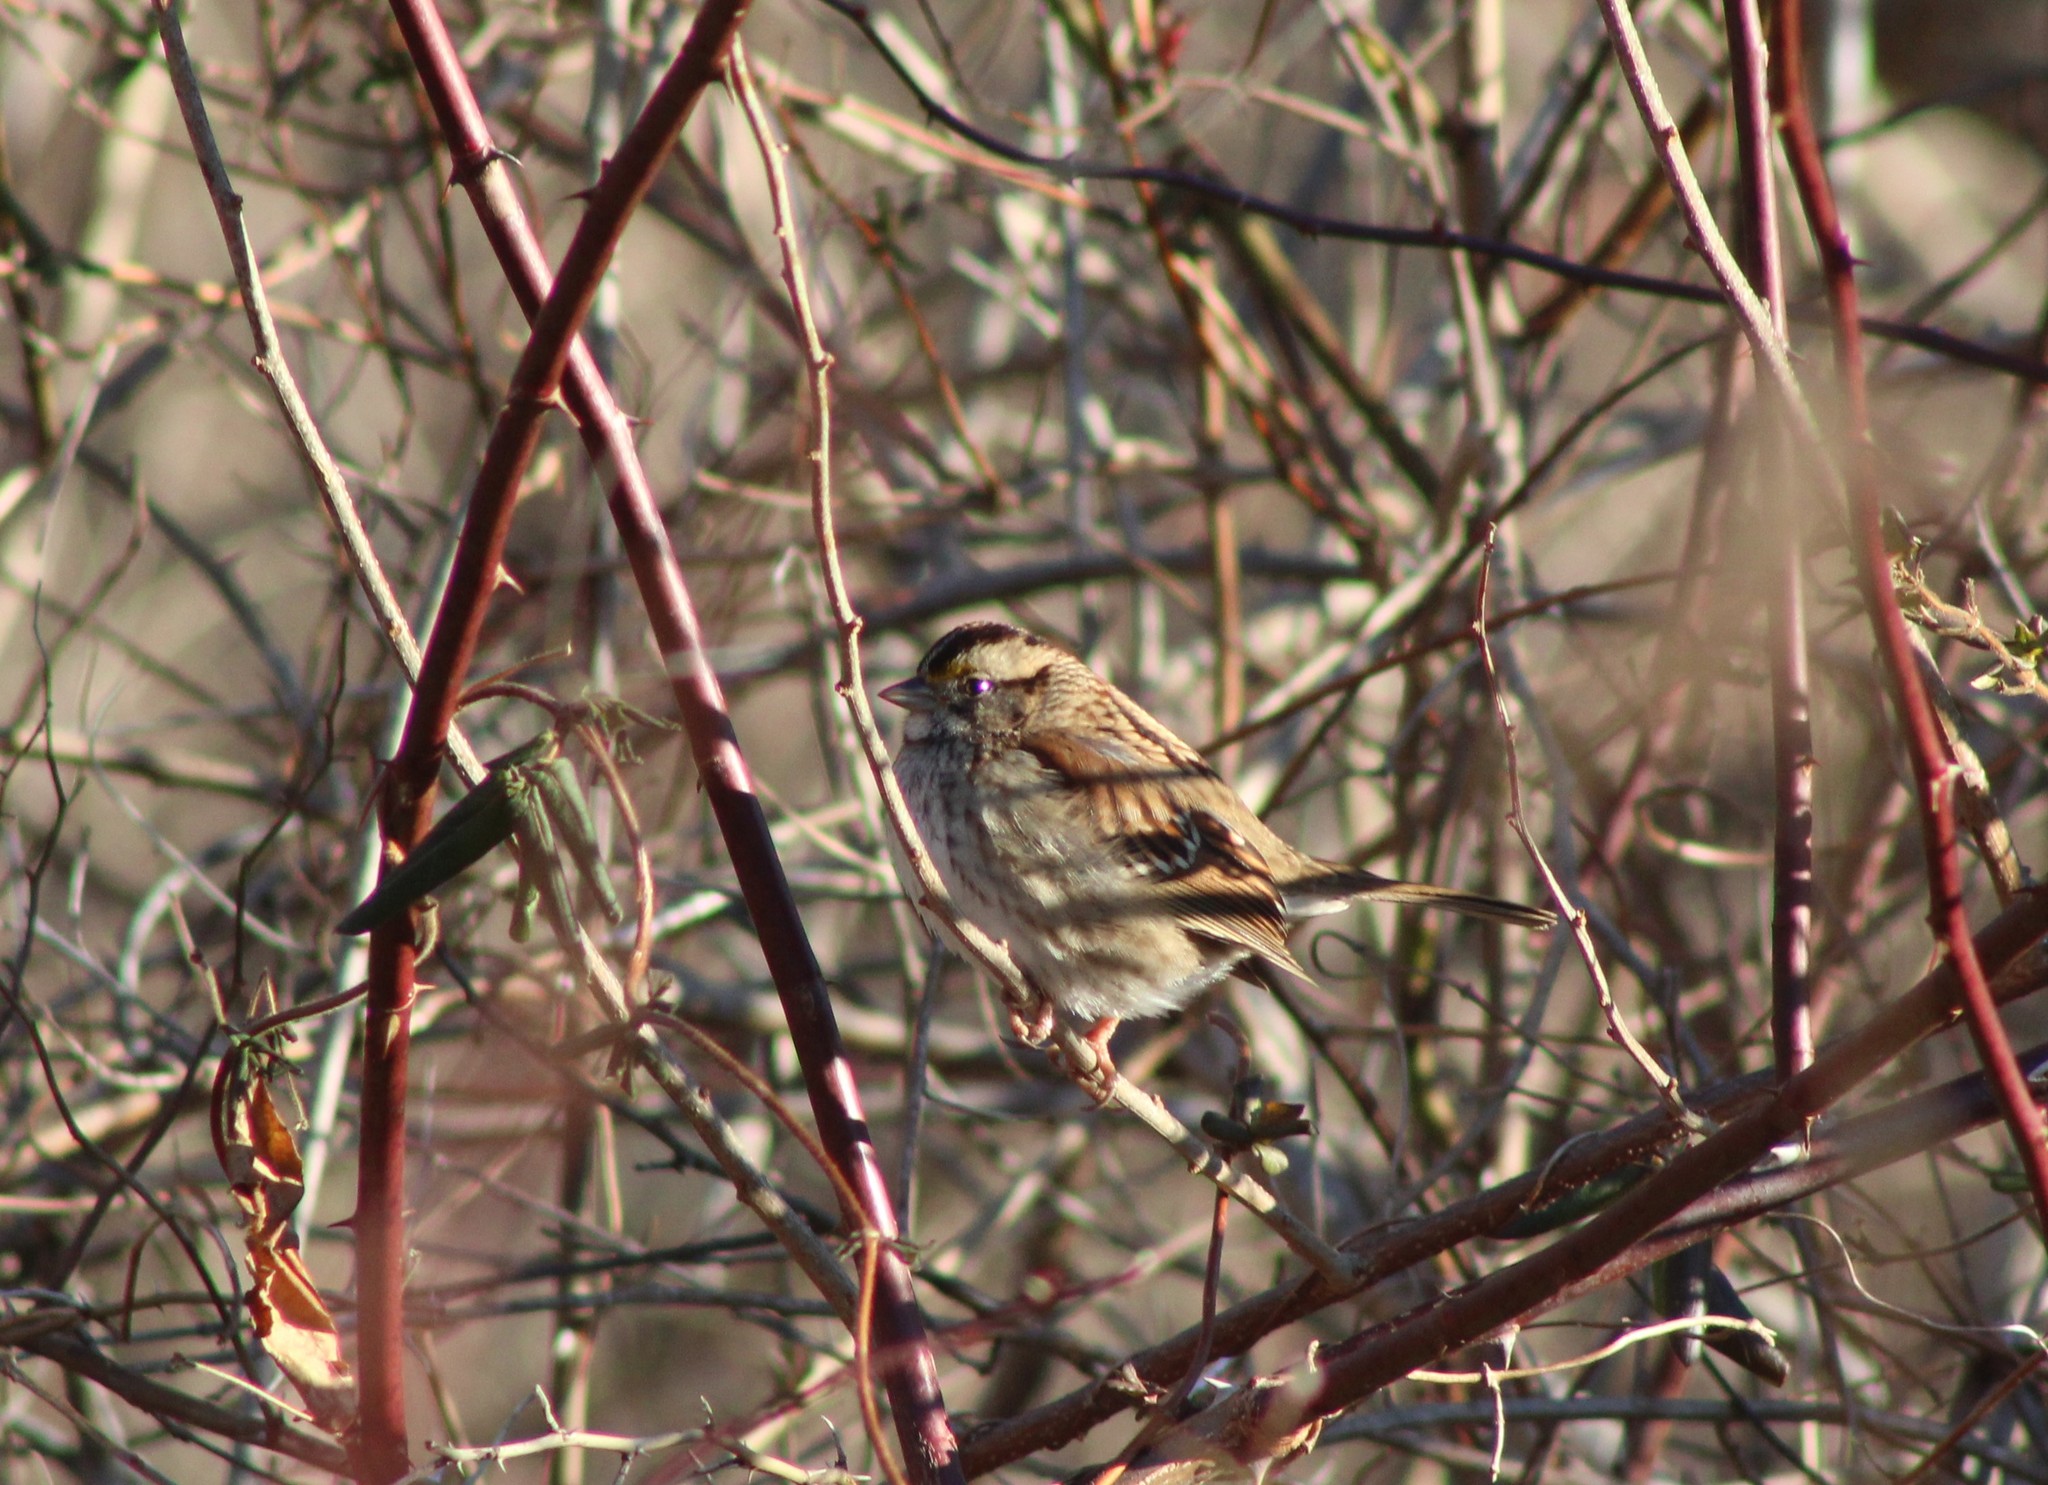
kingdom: Animalia
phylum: Chordata
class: Aves
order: Passeriformes
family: Passerellidae
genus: Zonotrichia
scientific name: Zonotrichia albicollis
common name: White-throated sparrow
